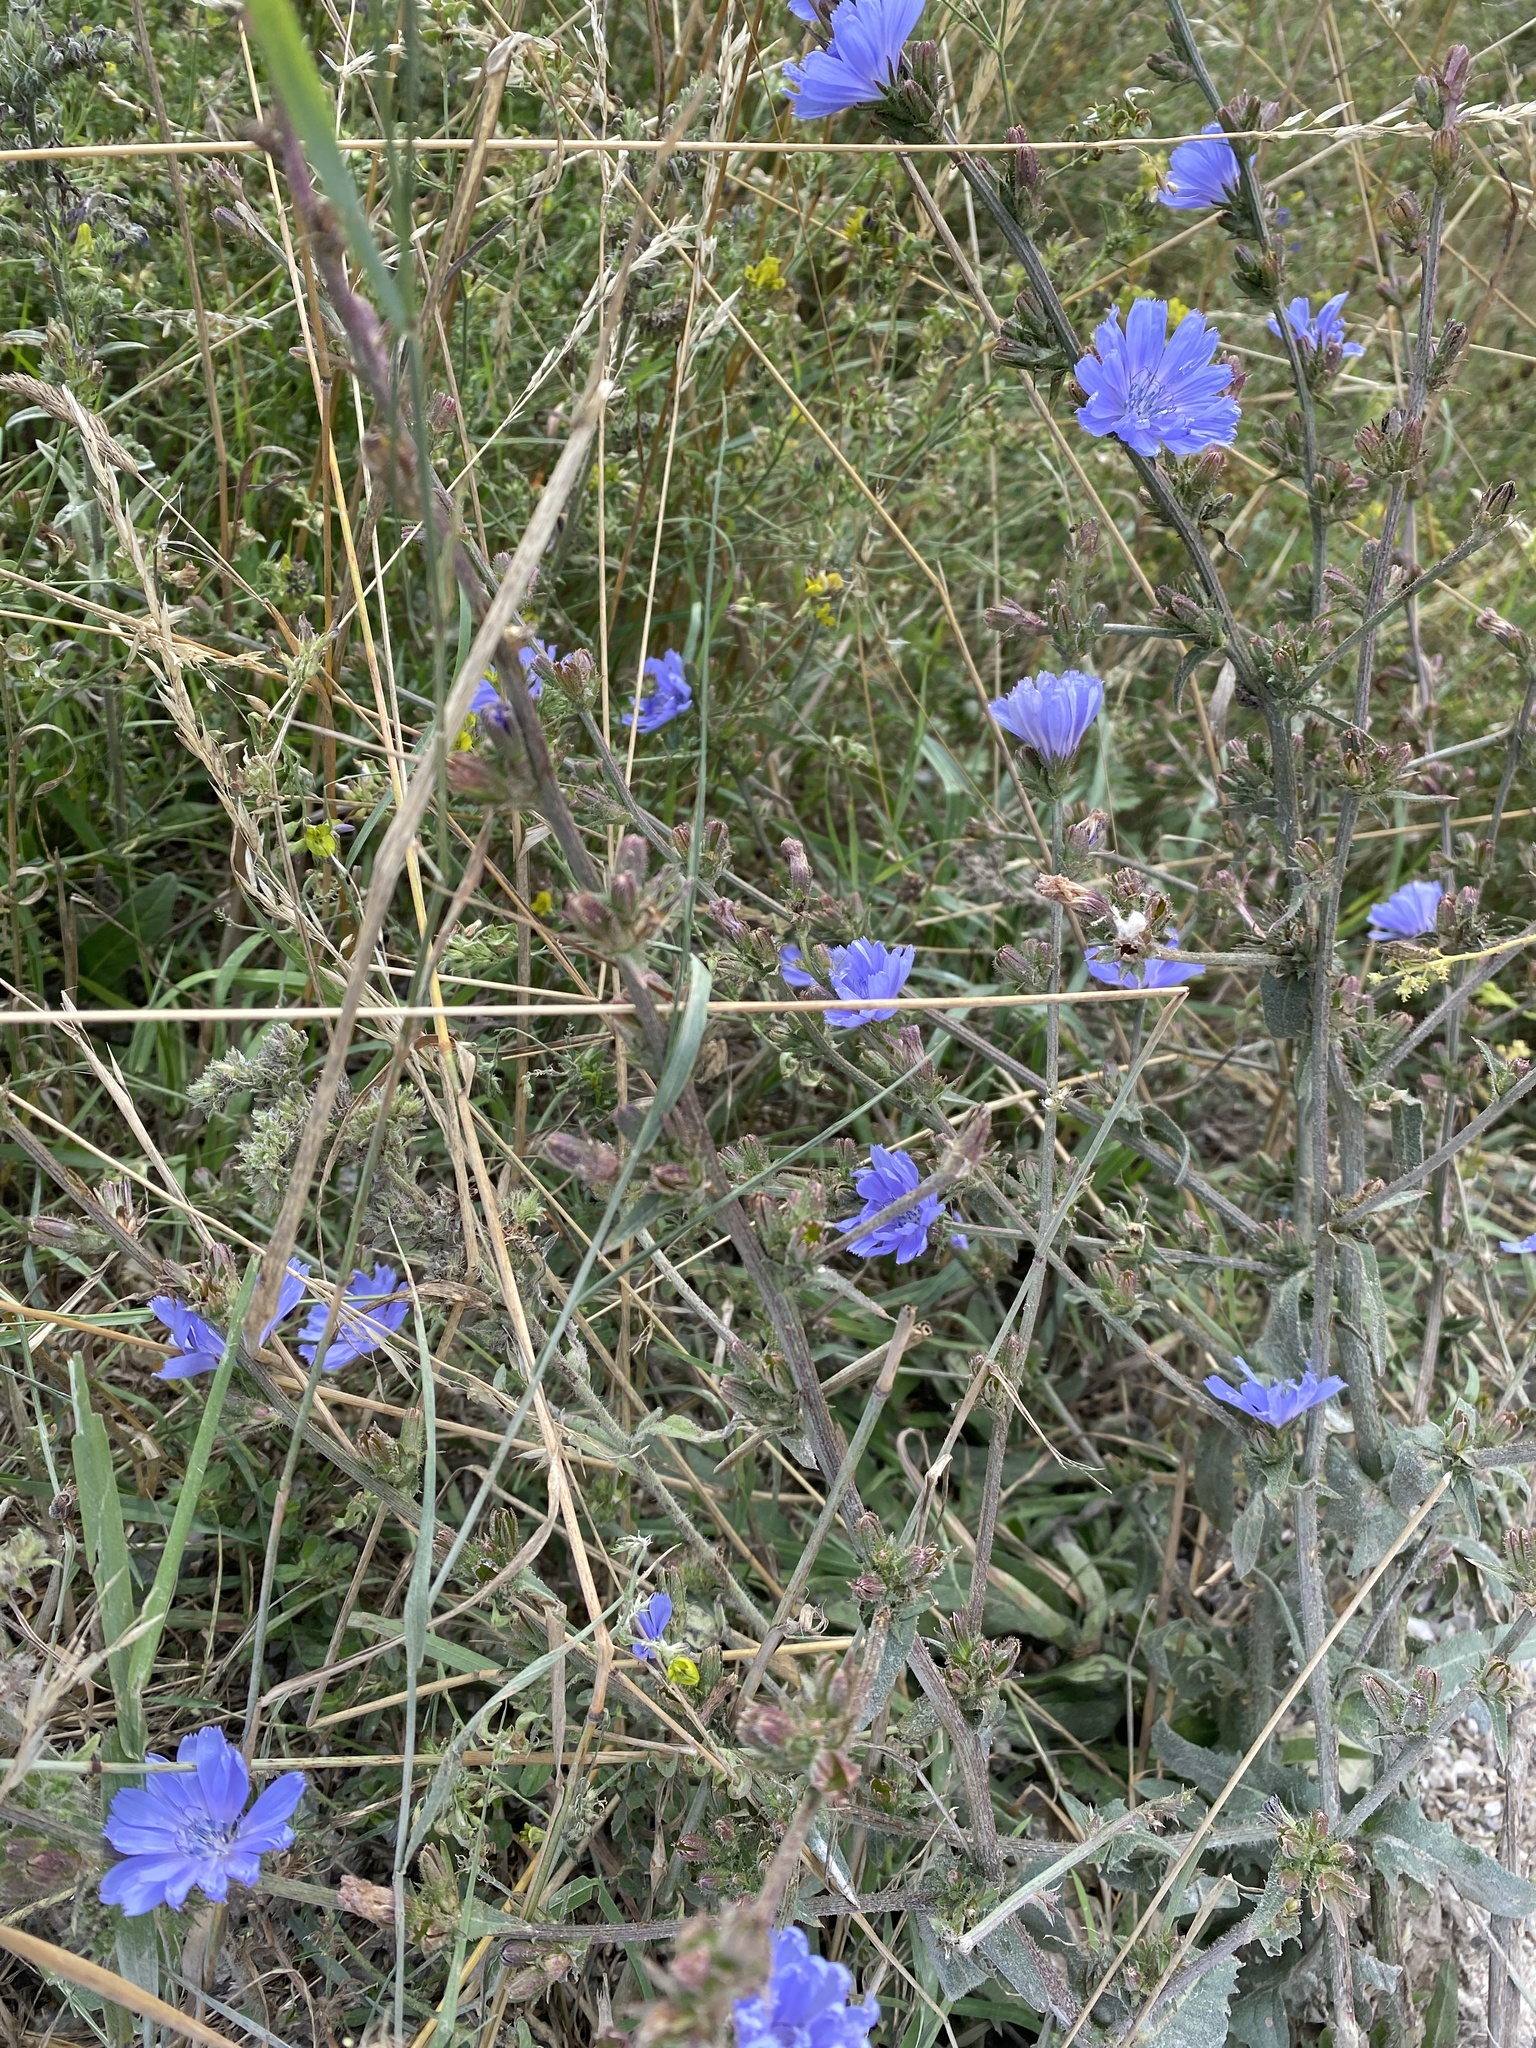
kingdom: Plantae
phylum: Tracheophyta
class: Magnoliopsida
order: Asterales
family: Asteraceae
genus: Cichorium
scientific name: Cichorium intybus
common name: Chicory
